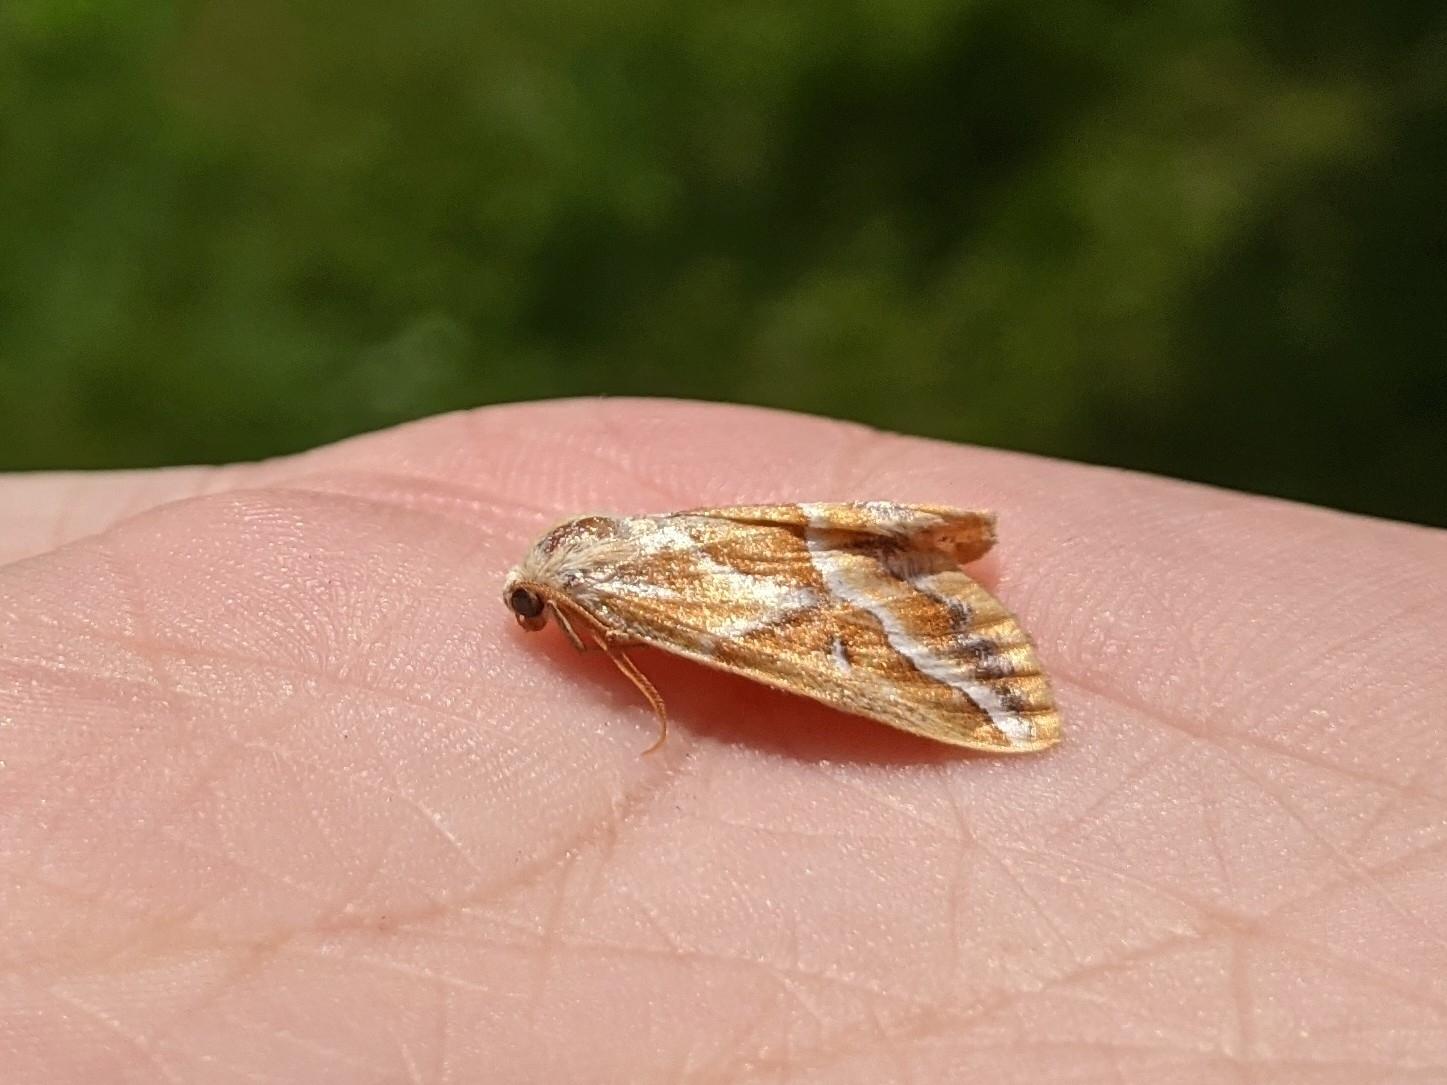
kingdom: Animalia
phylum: Arthropoda
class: Insecta
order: Lepidoptera
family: Geometridae
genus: Caripeta
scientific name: Caripeta angustiorata
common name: Brown pine looper
